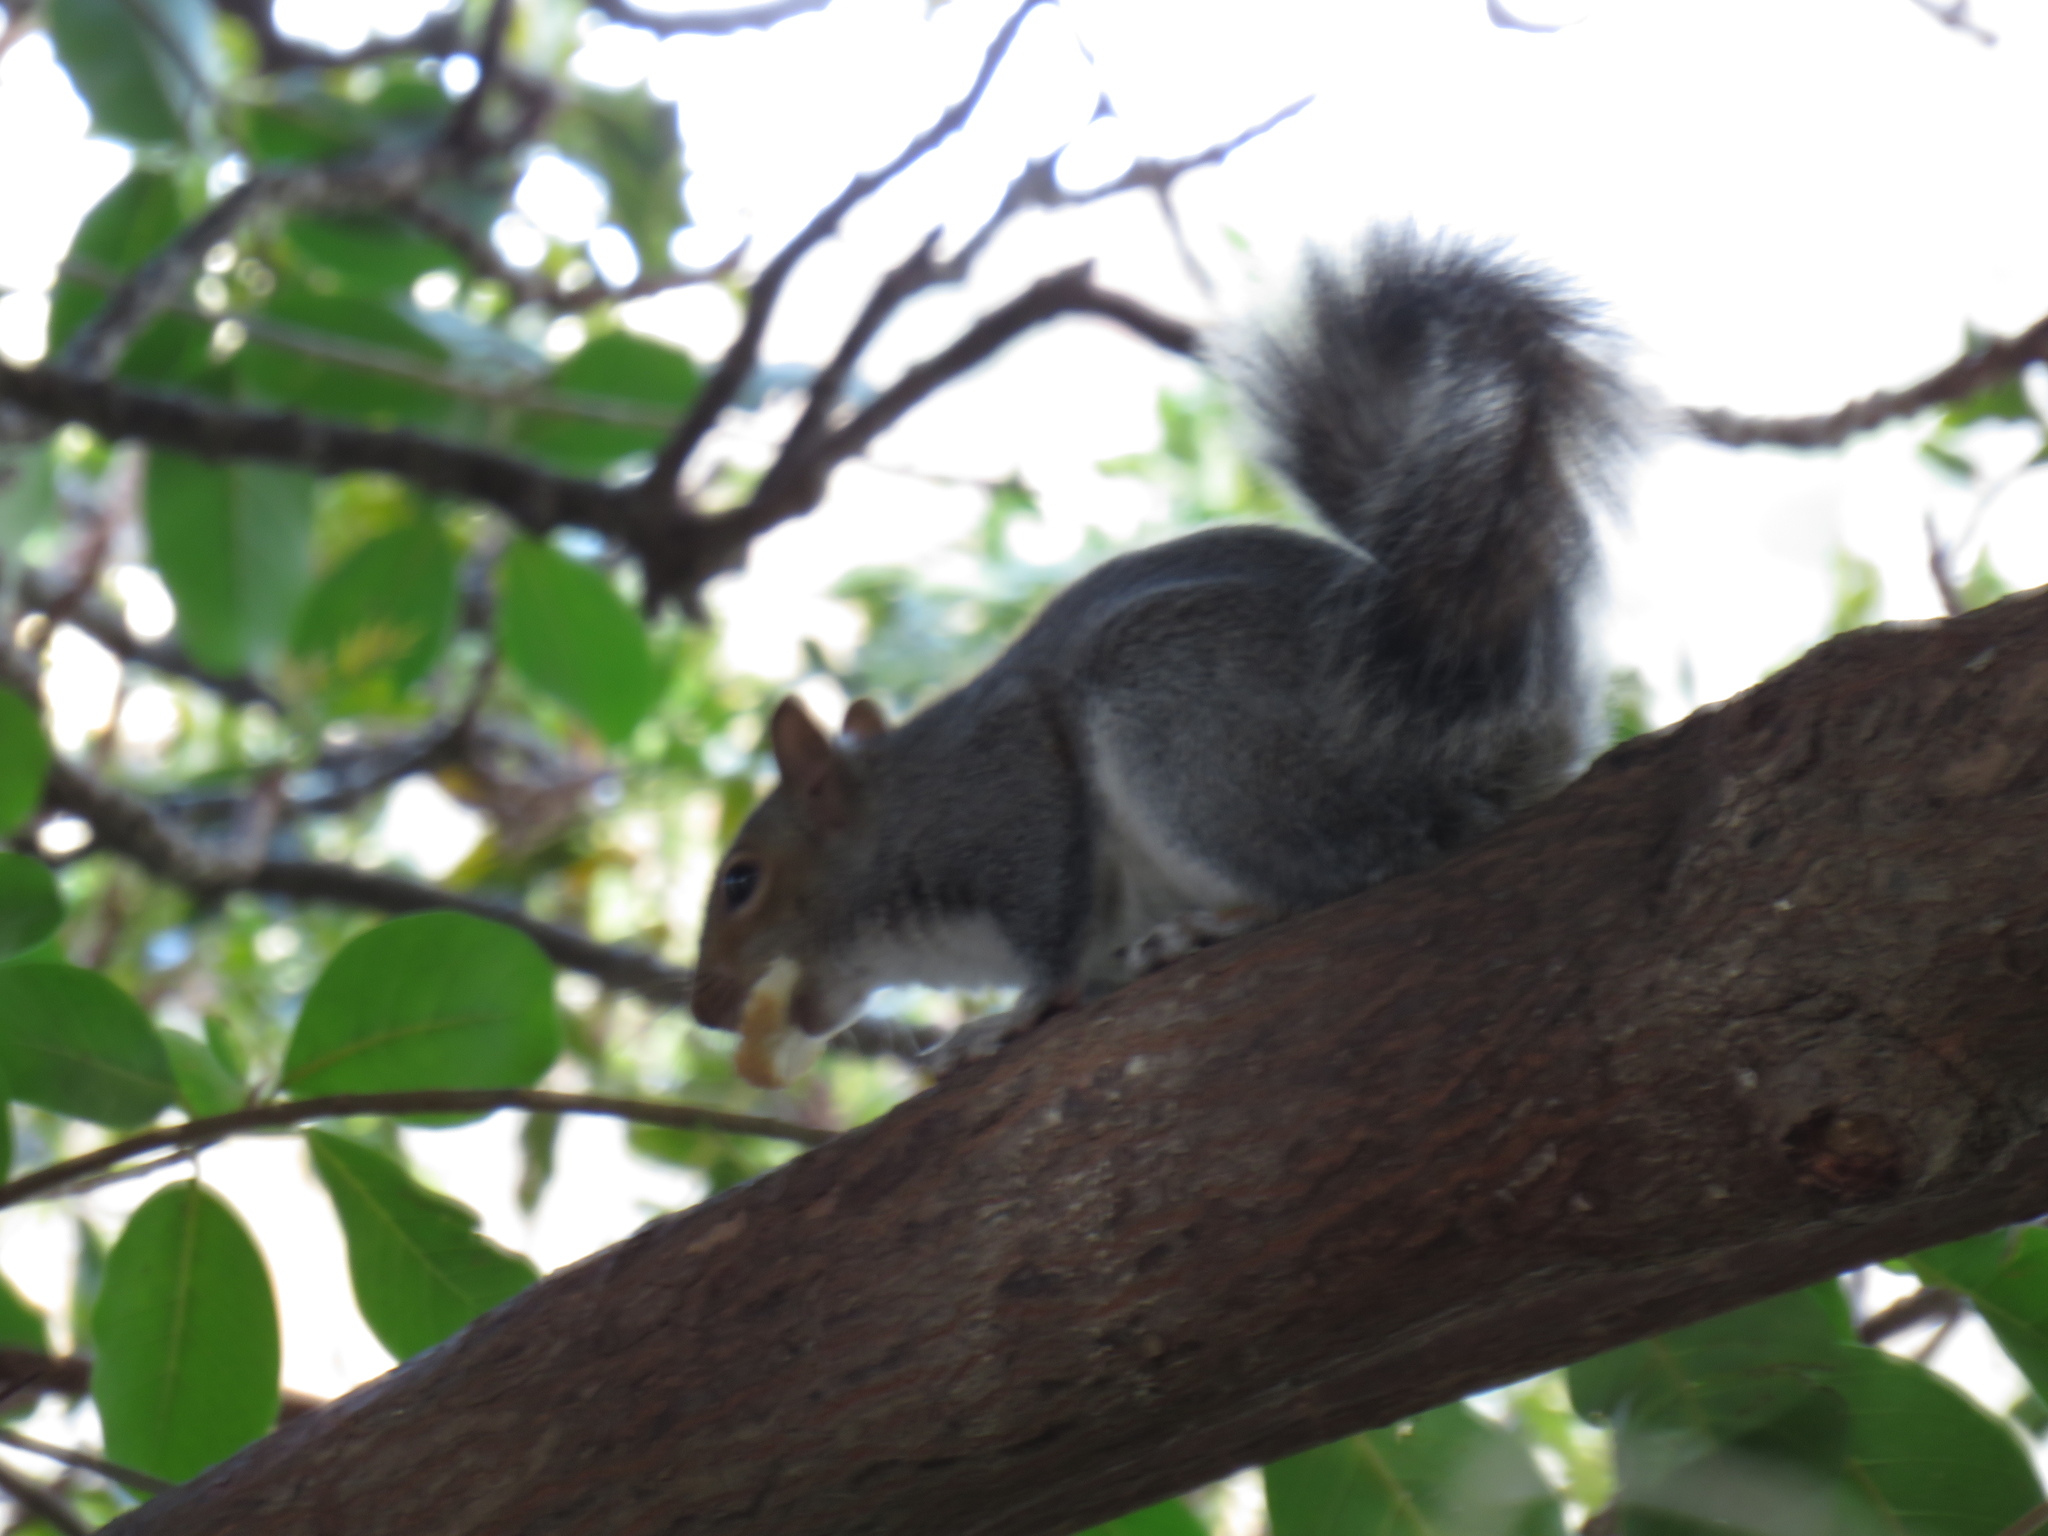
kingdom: Animalia
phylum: Chordata
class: Mammalia
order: Rodentia
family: Sciuridae
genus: Sciurus
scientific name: Sciurus carolinensis
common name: Eastern gray squirrel
